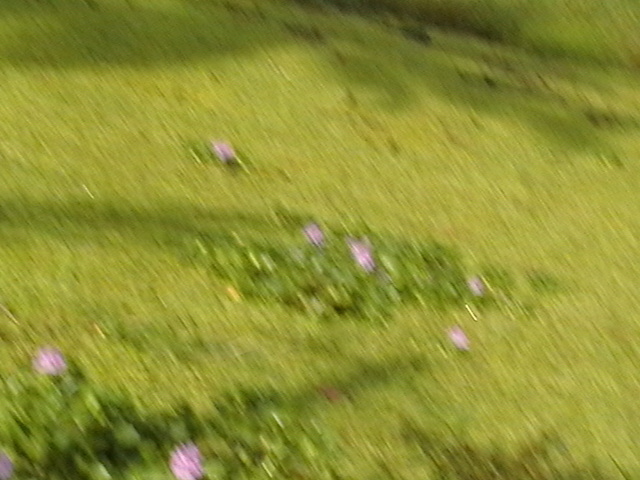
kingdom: Plantae
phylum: Tracheophyta
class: Liliopsida
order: Commelinales
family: Pontederiaceae
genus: Pontederia
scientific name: Pontederia crassipes
